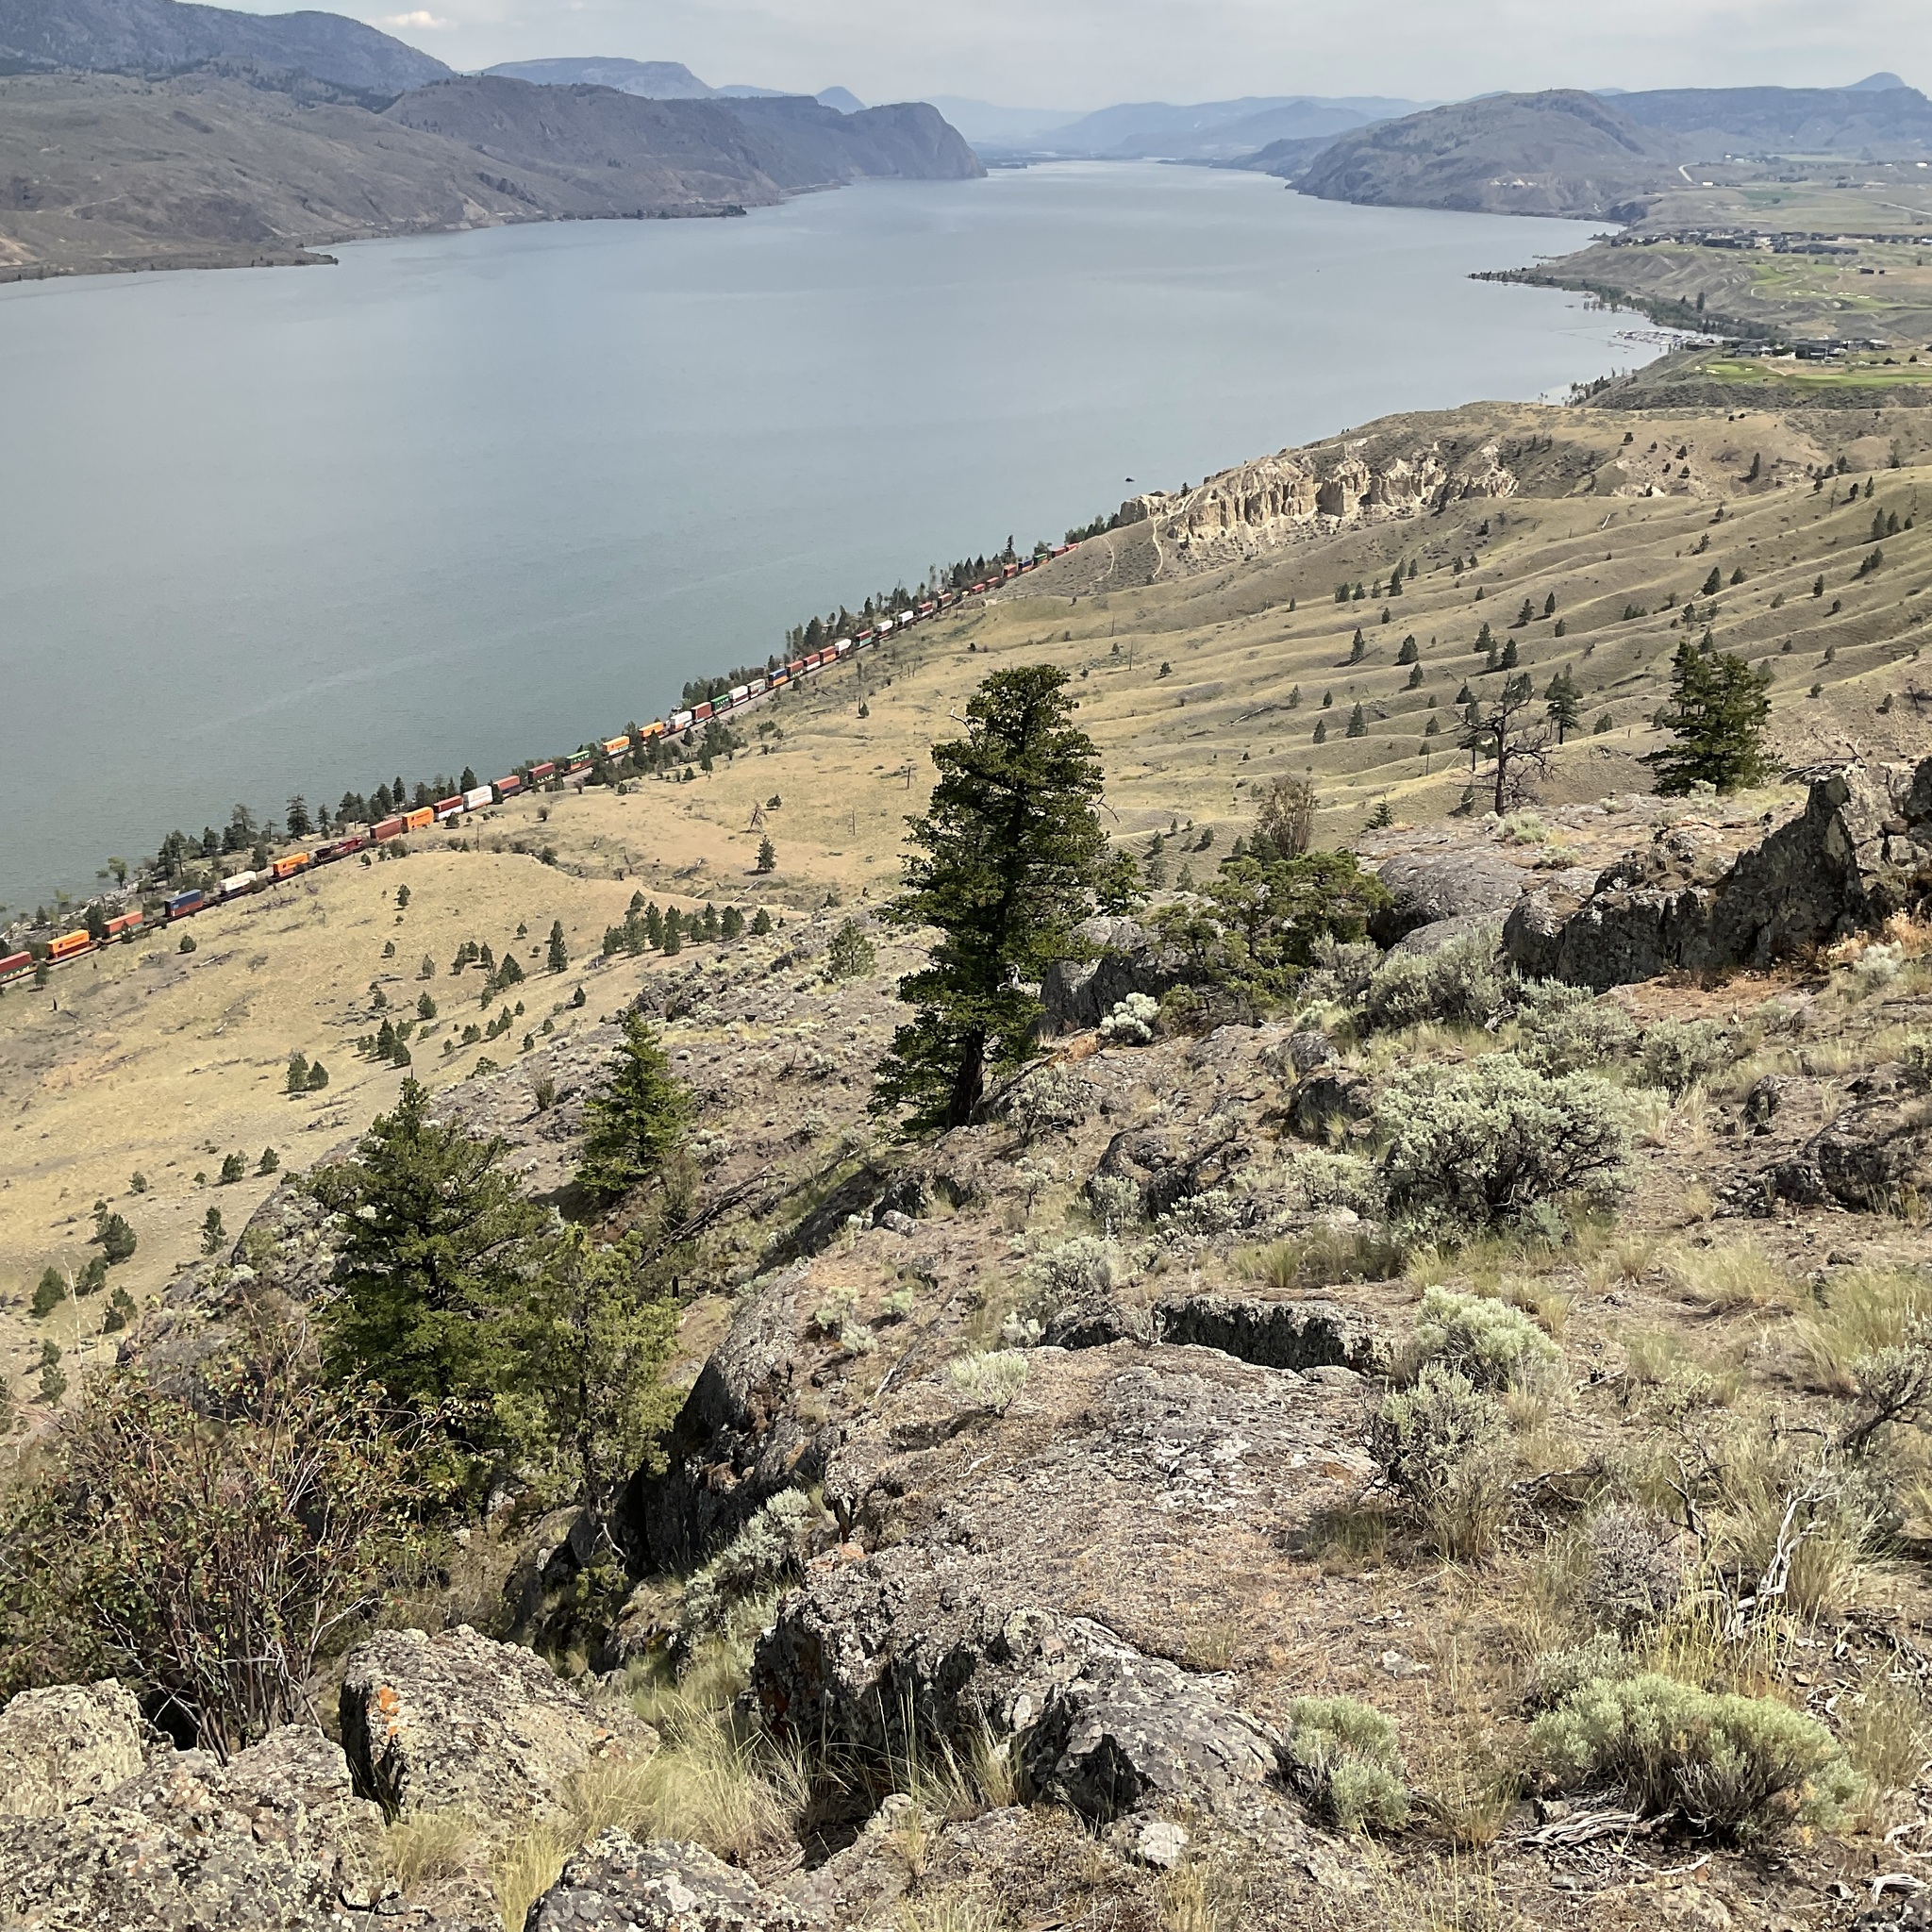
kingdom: Plantae
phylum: Tracheophyta
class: Pinopsida
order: Pinales
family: Pinaceae
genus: Pseudotsuga
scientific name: Pseudotsuga menziesii
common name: Douglas fir
